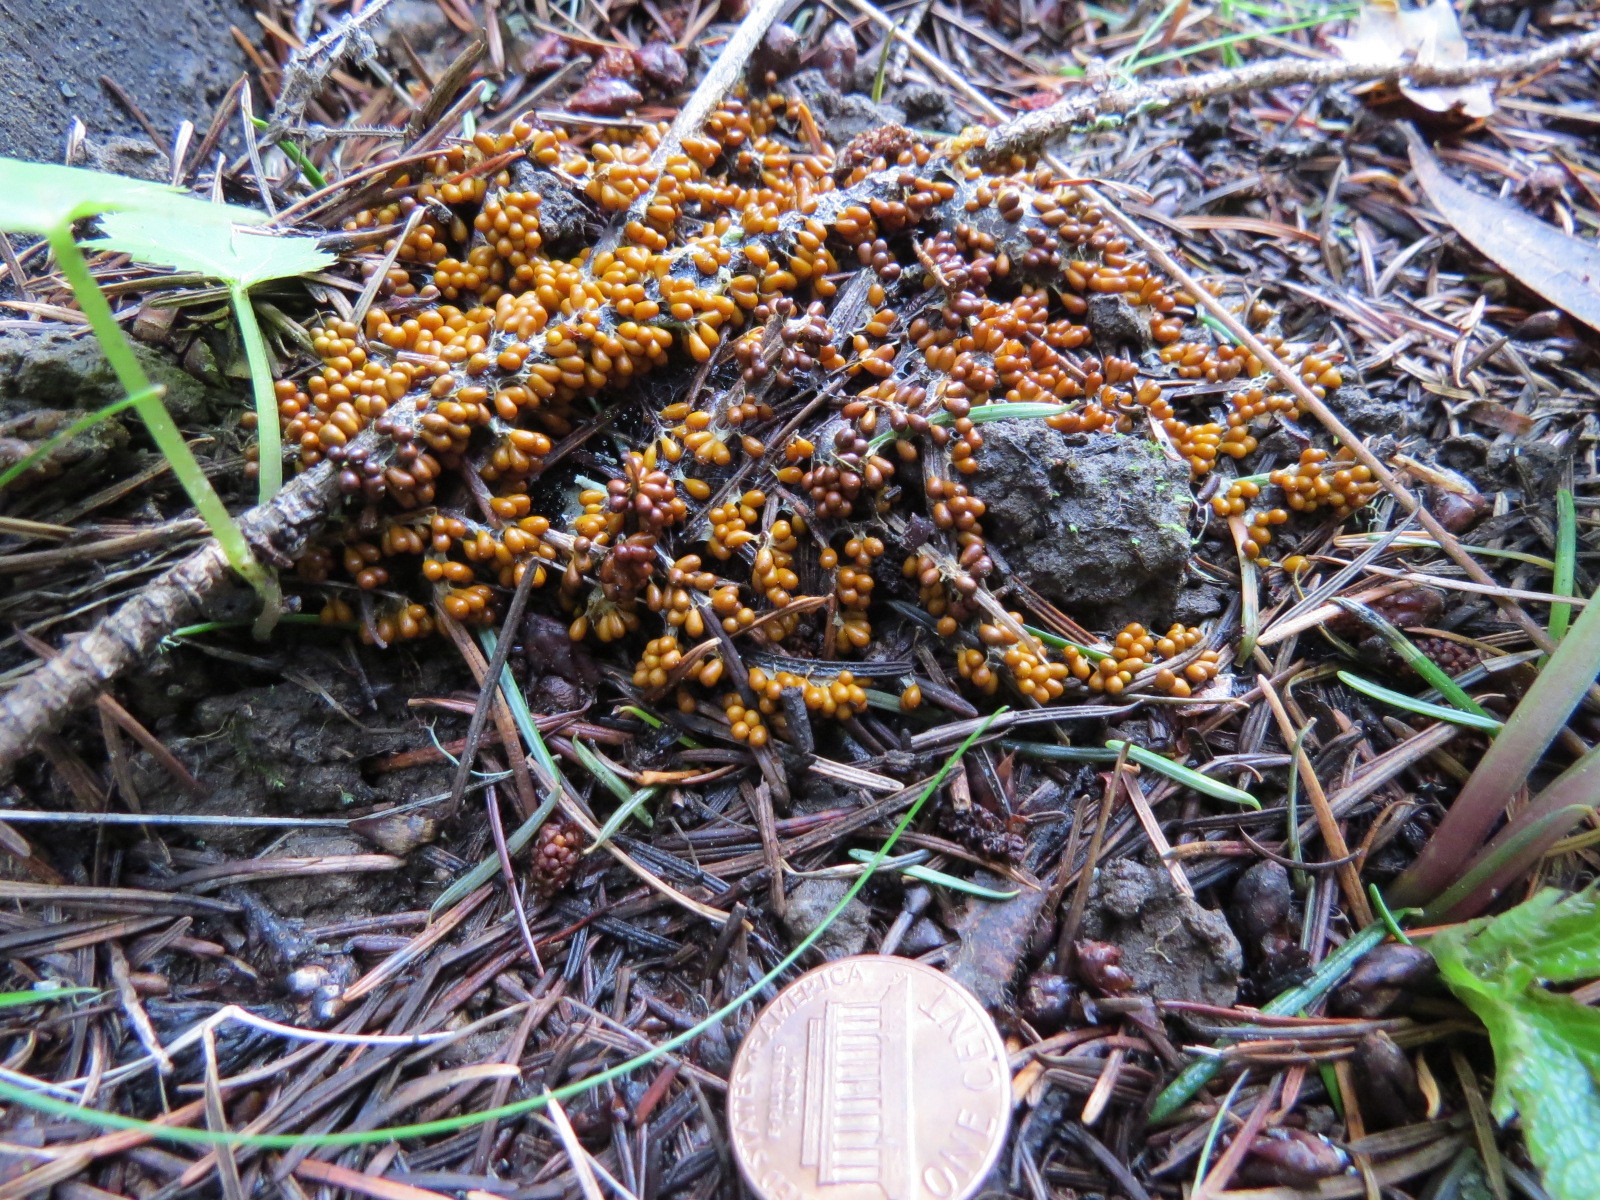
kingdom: Protozoa
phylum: Mycetozoa
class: Myxomycetes
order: Physarales
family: Physaraceae
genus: Leocarpus
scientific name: Leocarpus fragilis
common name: Insect-egg slime
